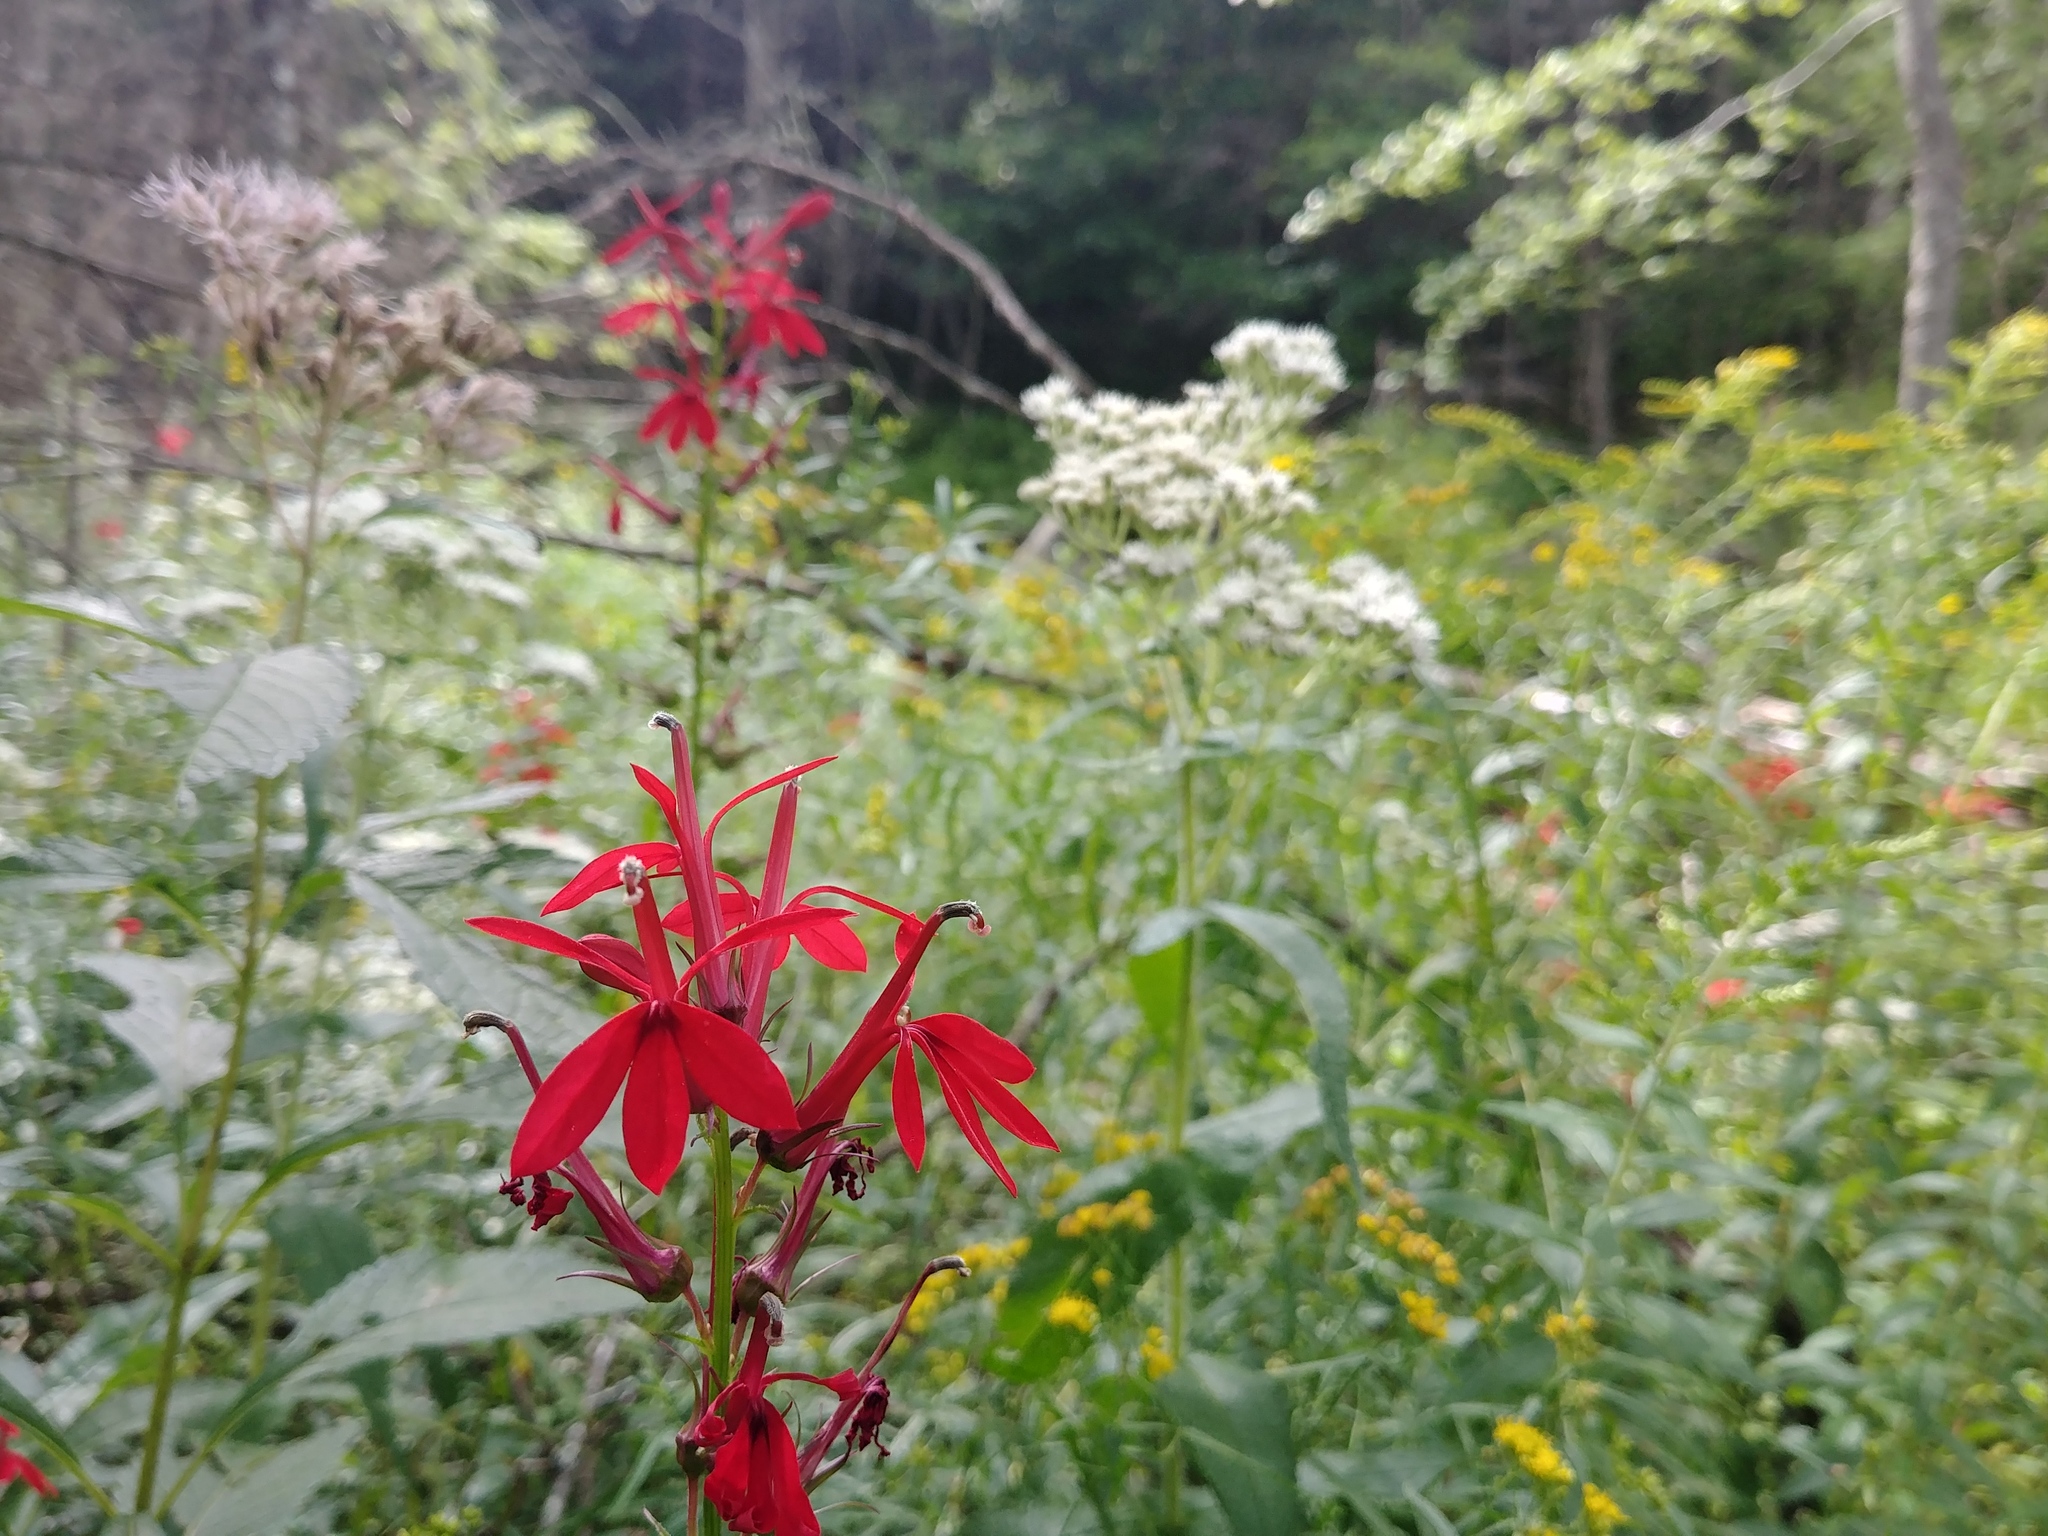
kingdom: Plantae
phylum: Tracheophyta
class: Magnoliopsida
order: Asterales
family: Campanulaceae
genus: Lobelia
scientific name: Lobelia cardinalis
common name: Cardinal flower
